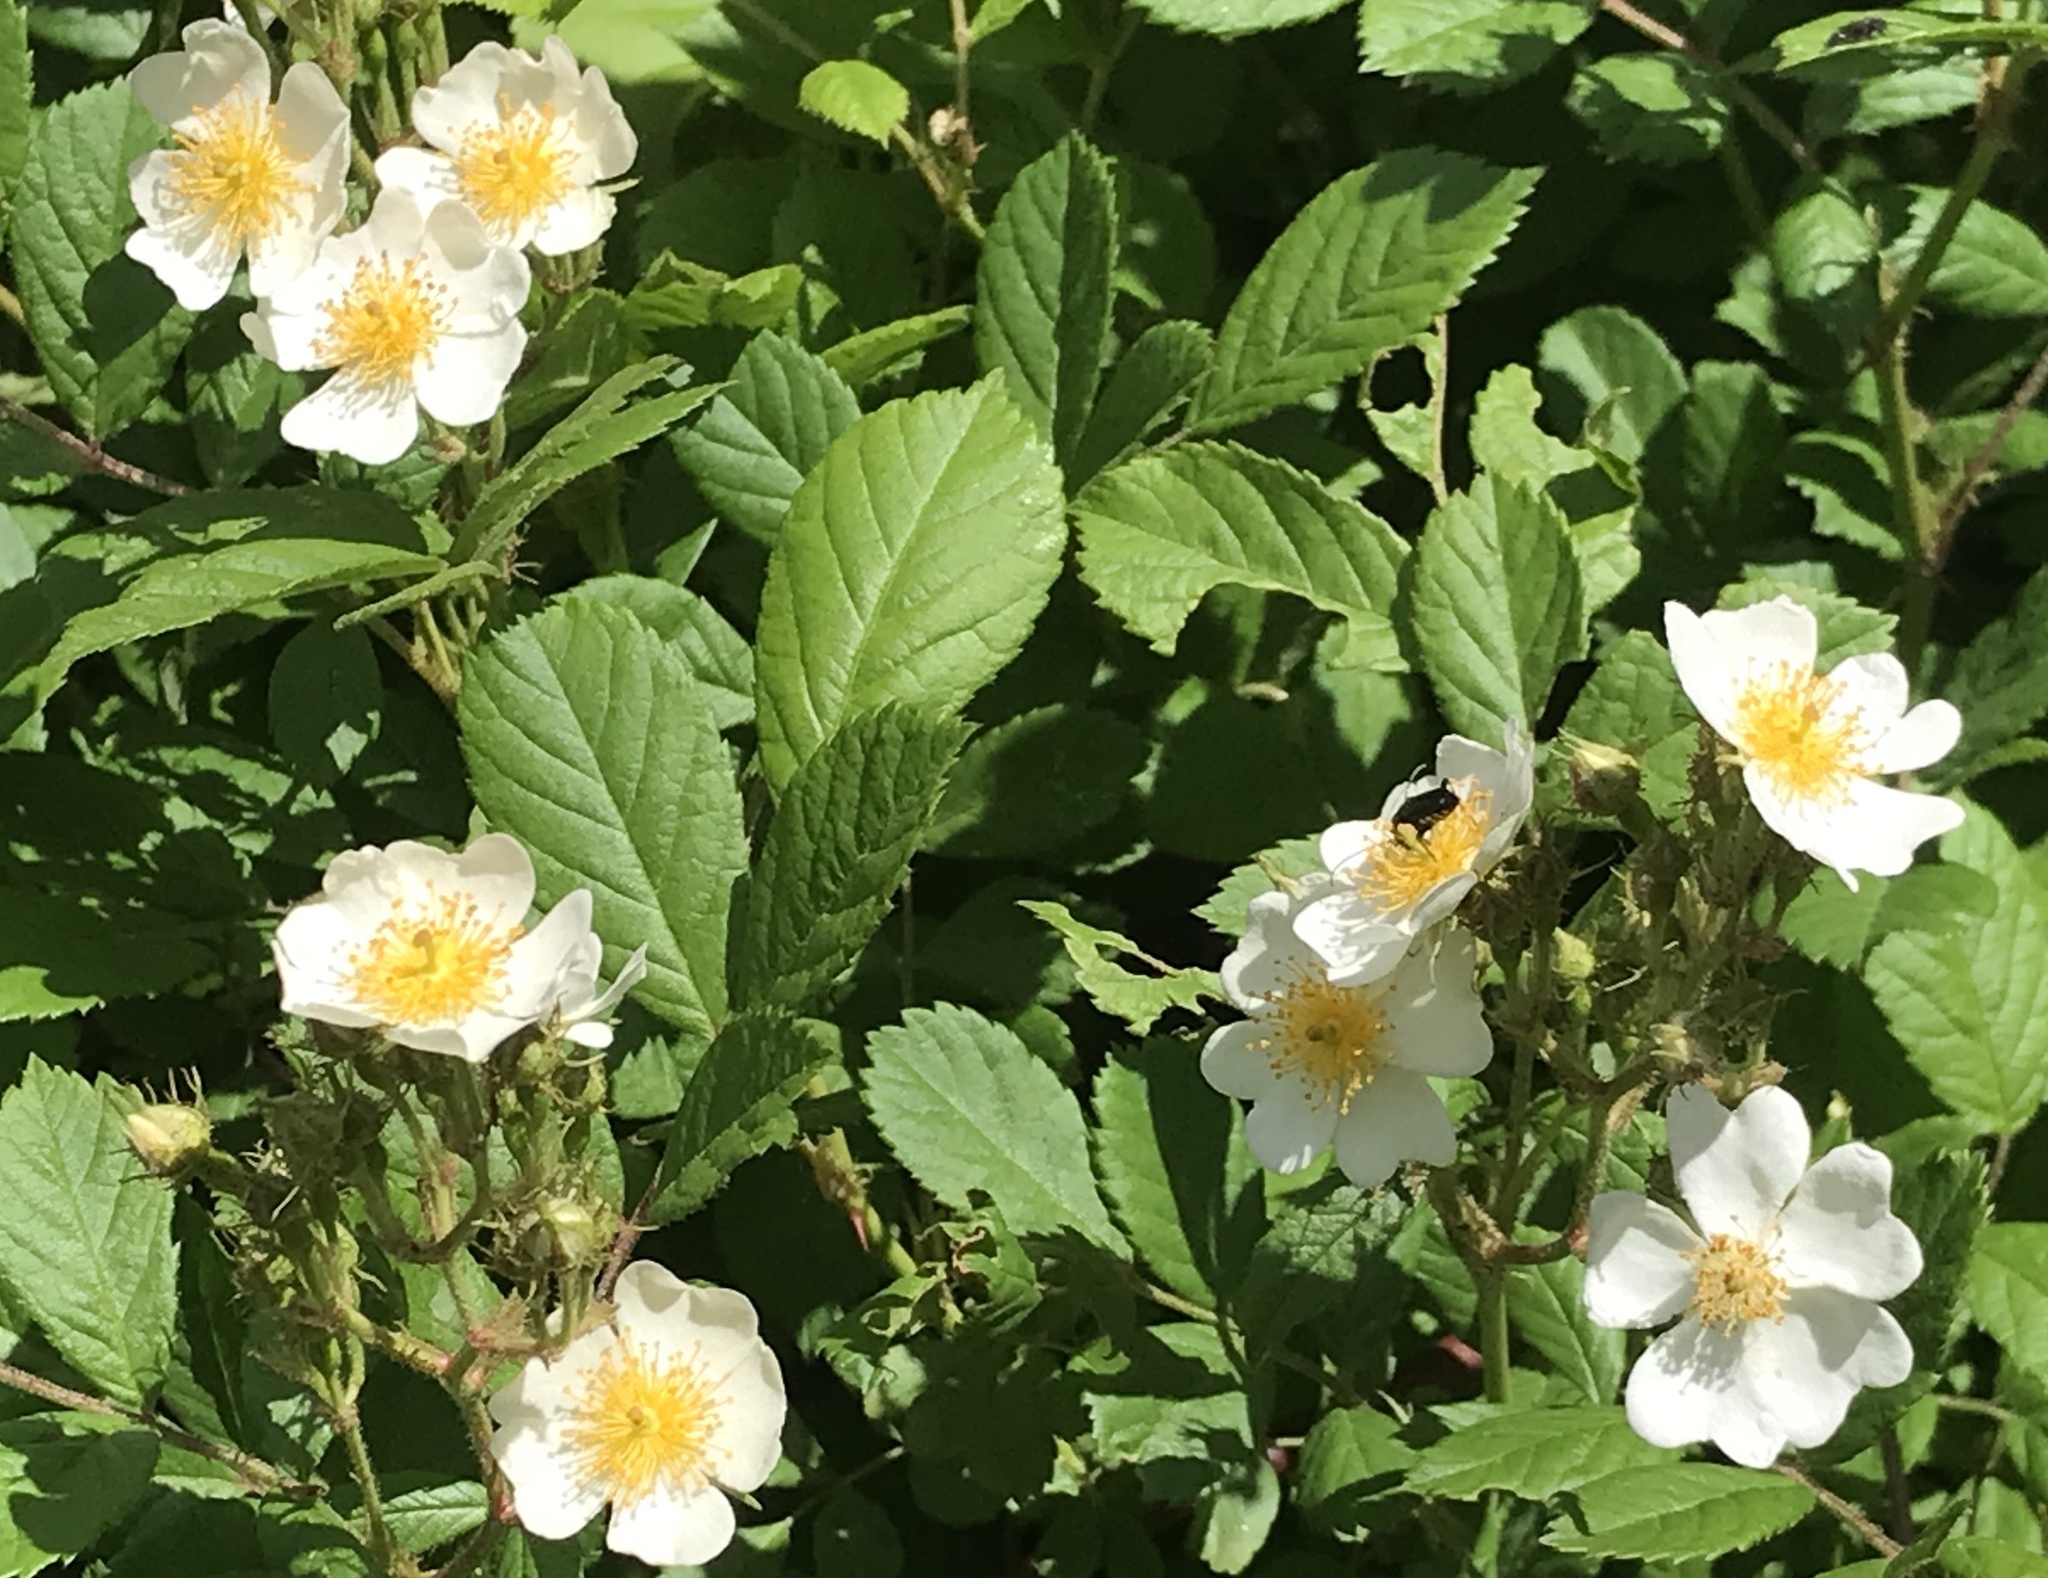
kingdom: Plantae
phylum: Tracheophyta
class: Magnoliopsida
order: Rosales
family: Rosaceae
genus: Rosa
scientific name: Rosa multiflora
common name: Multiflora rose
